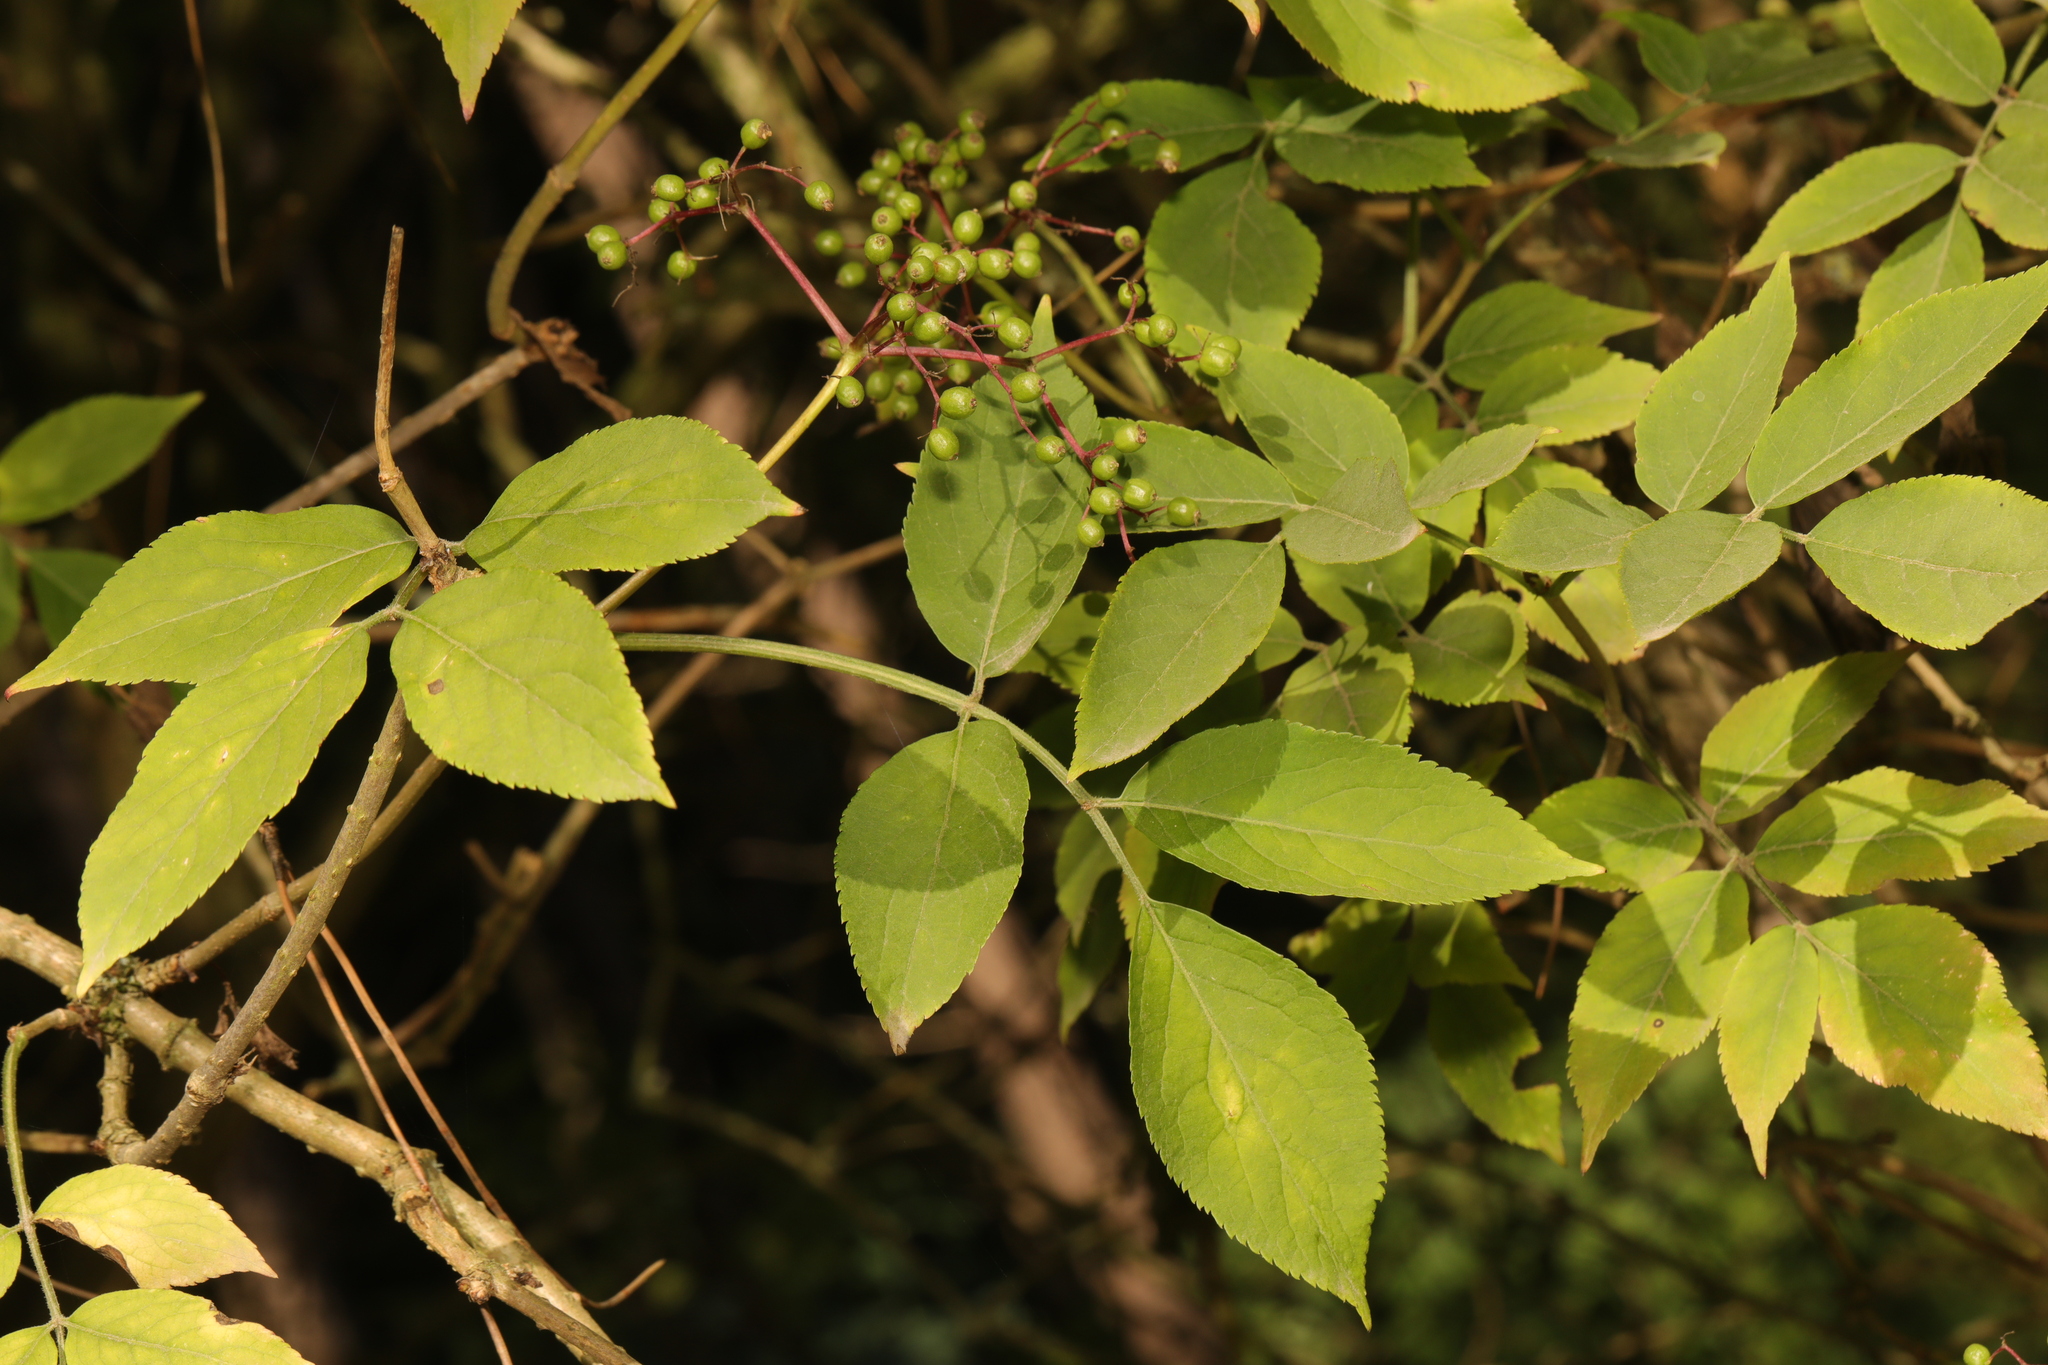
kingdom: Plantae
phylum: Tracheophyta
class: Magnoliopsida
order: Dipsacales
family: Viburnaceae
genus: Sambucus
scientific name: Sambucus nigra
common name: Elder
